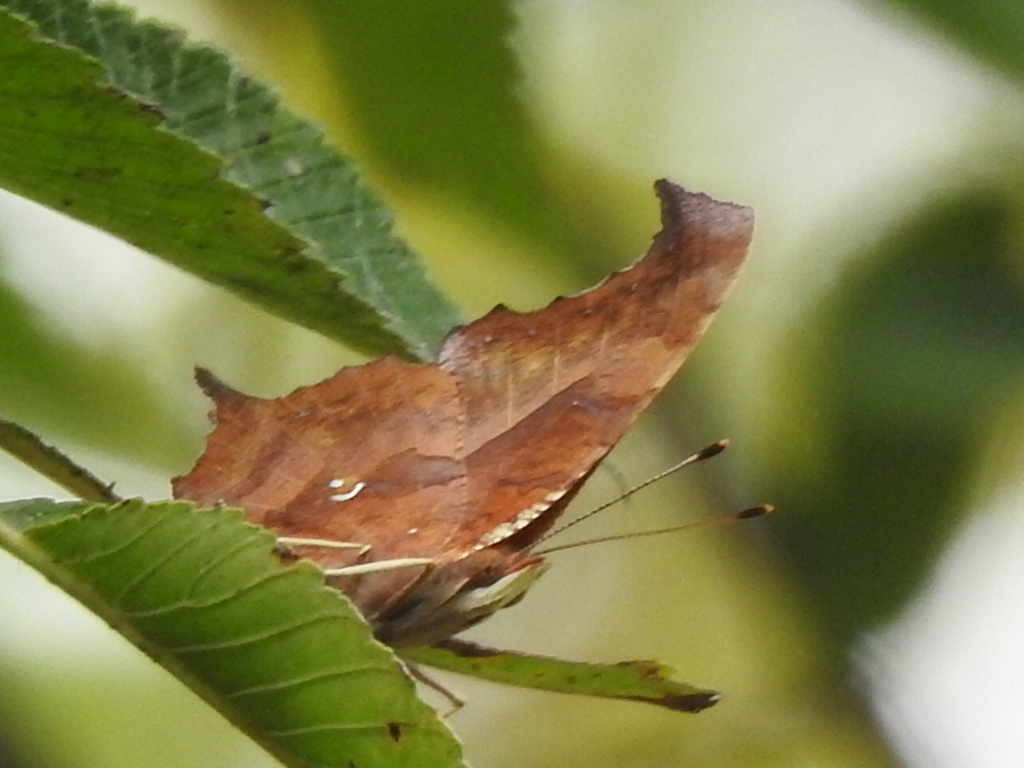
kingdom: Animalia
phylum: Arthropoda
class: Insecta
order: Lepidoptera
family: Nymphalidae
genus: Polygonia
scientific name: Polygonia interrogationis
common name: Question mark
